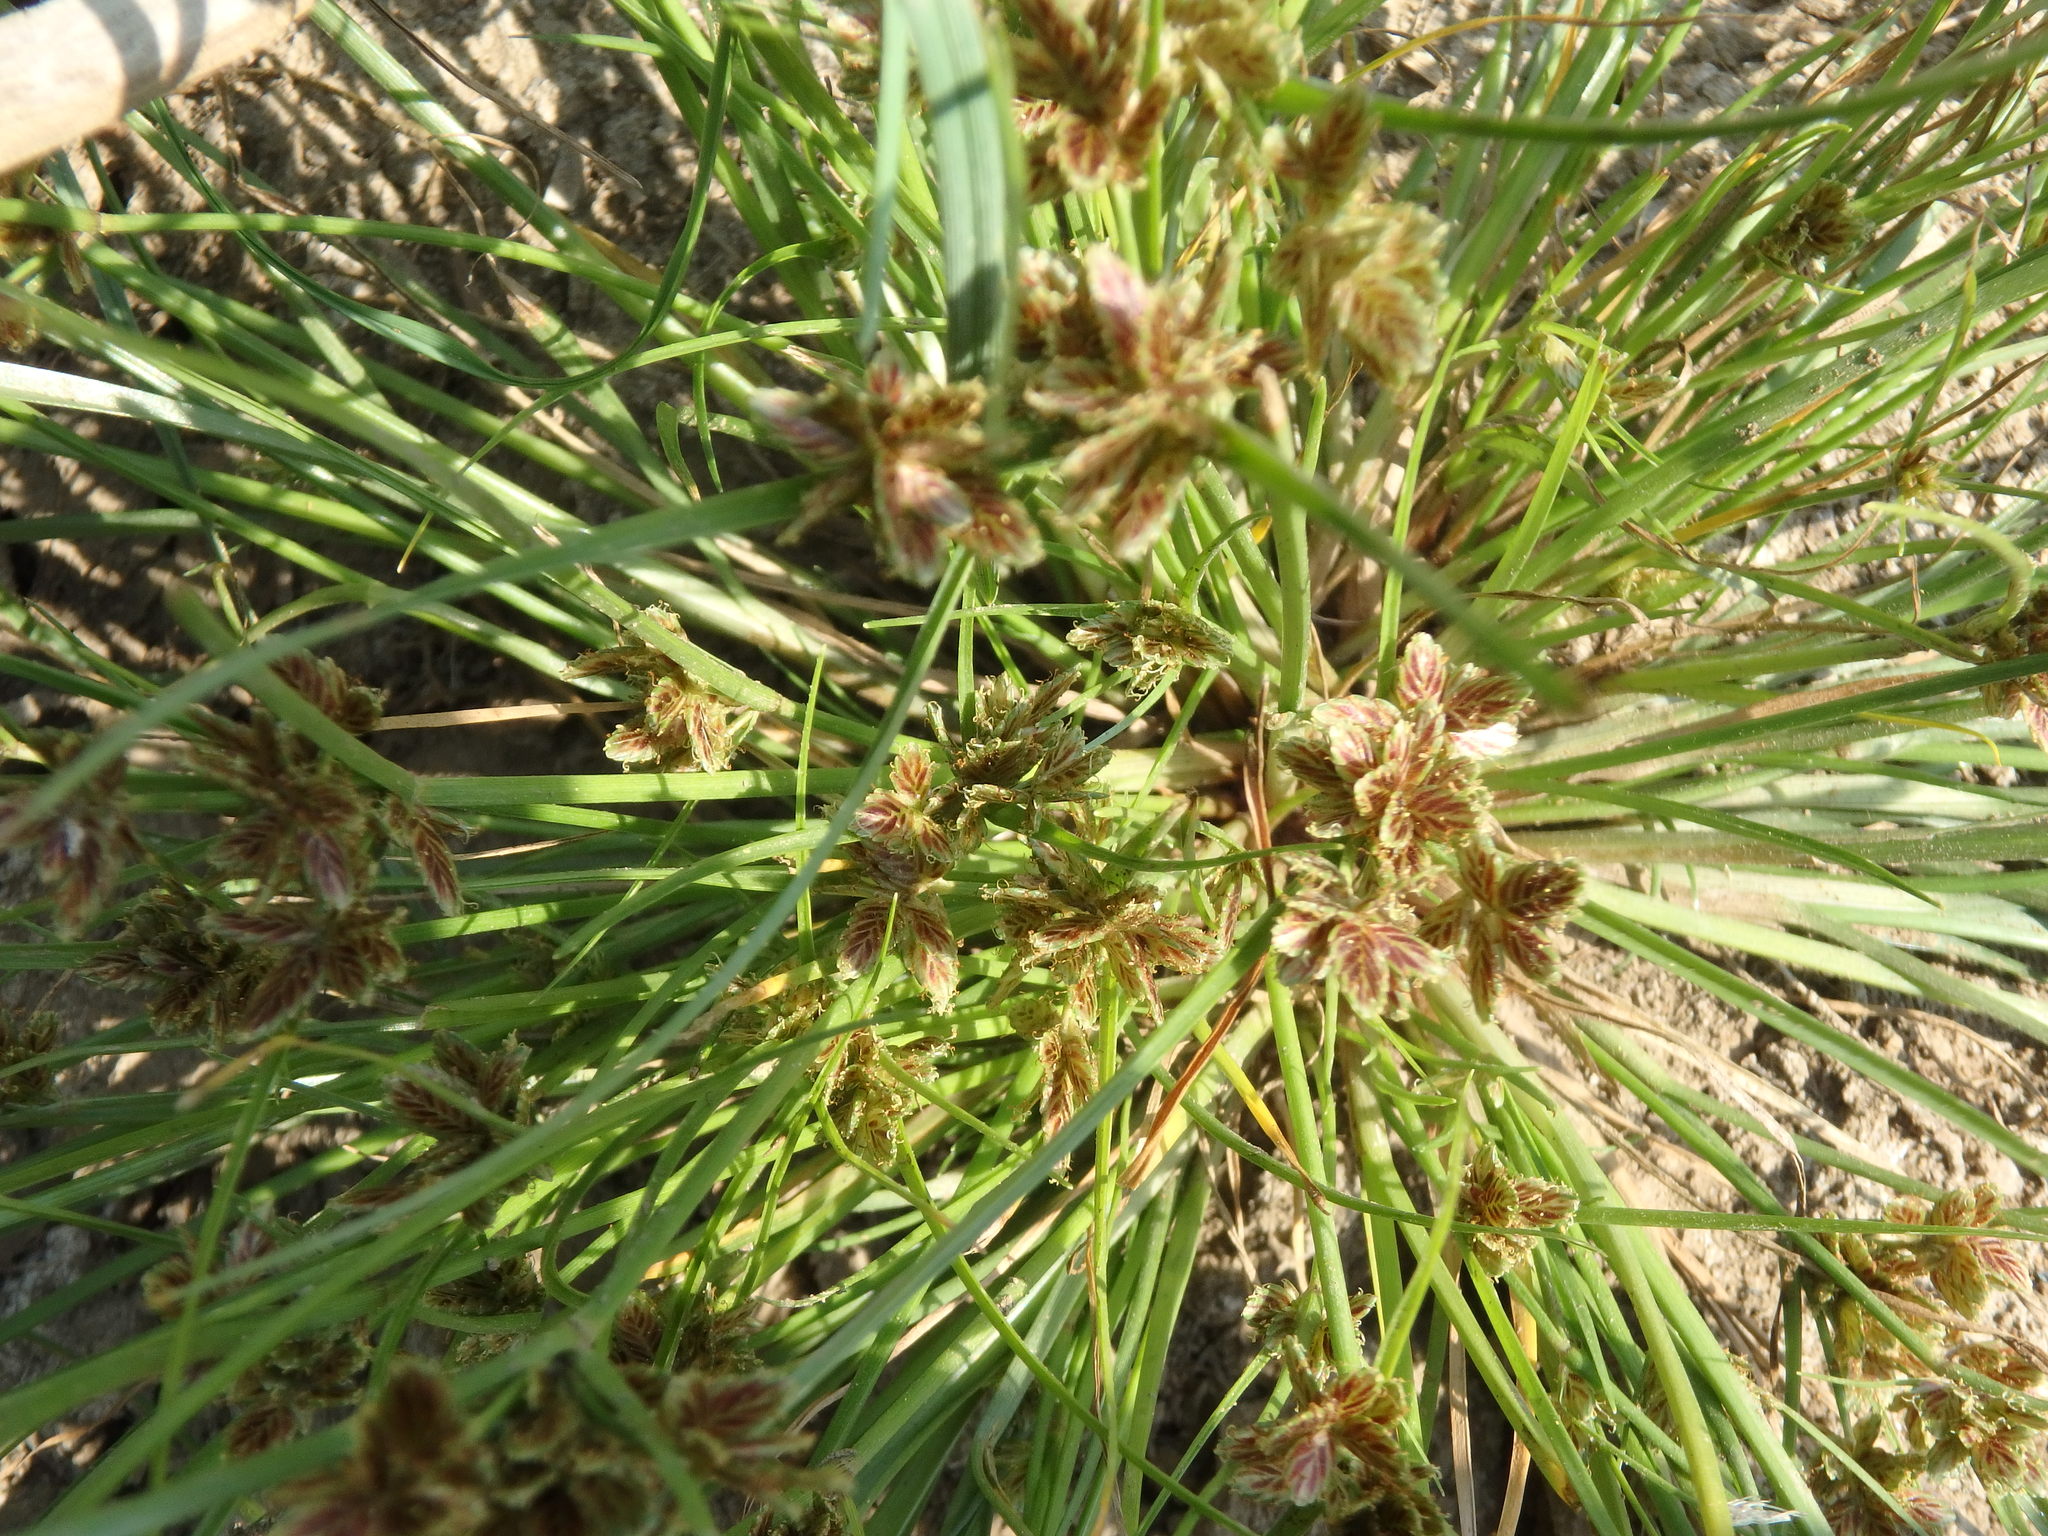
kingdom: Plantae
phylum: Tracheophyta
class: Liliopsida
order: Poales
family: Cyperaceae
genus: Cyperus
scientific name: Cyperus bipartitus
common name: Brook flatsedge
